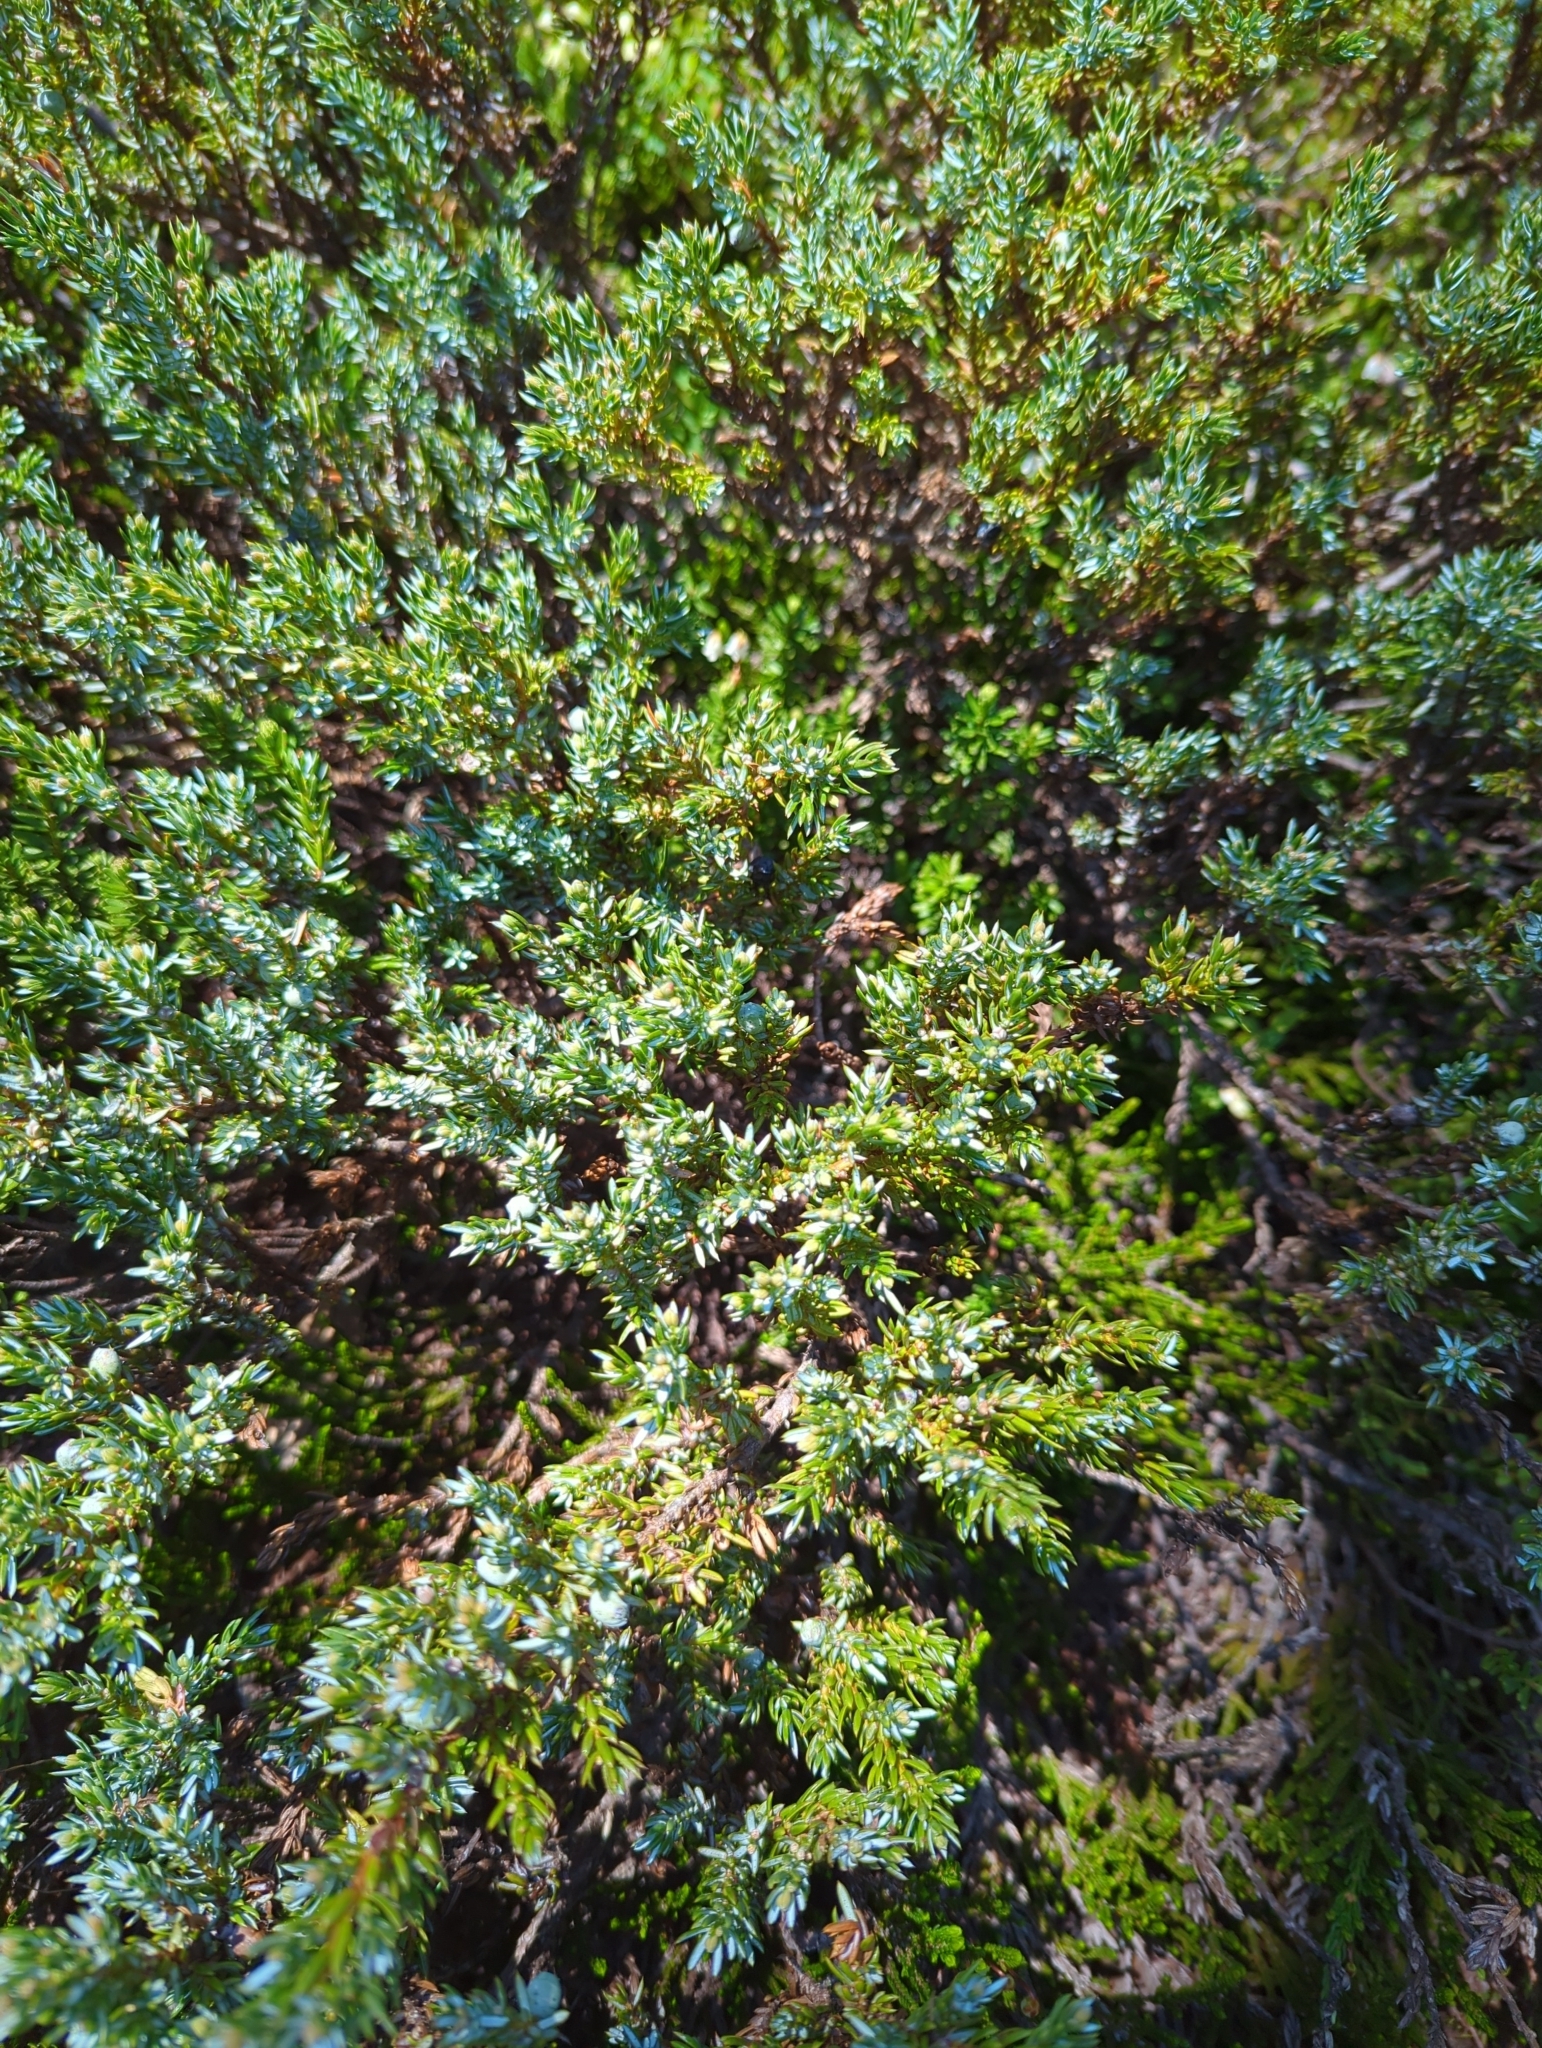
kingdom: Plantae
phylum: Tracheophyta
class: Pinopsida
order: Pinales
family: Cupressaceae
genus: Juniperus
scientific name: Juniperus communis
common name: Common juniper
